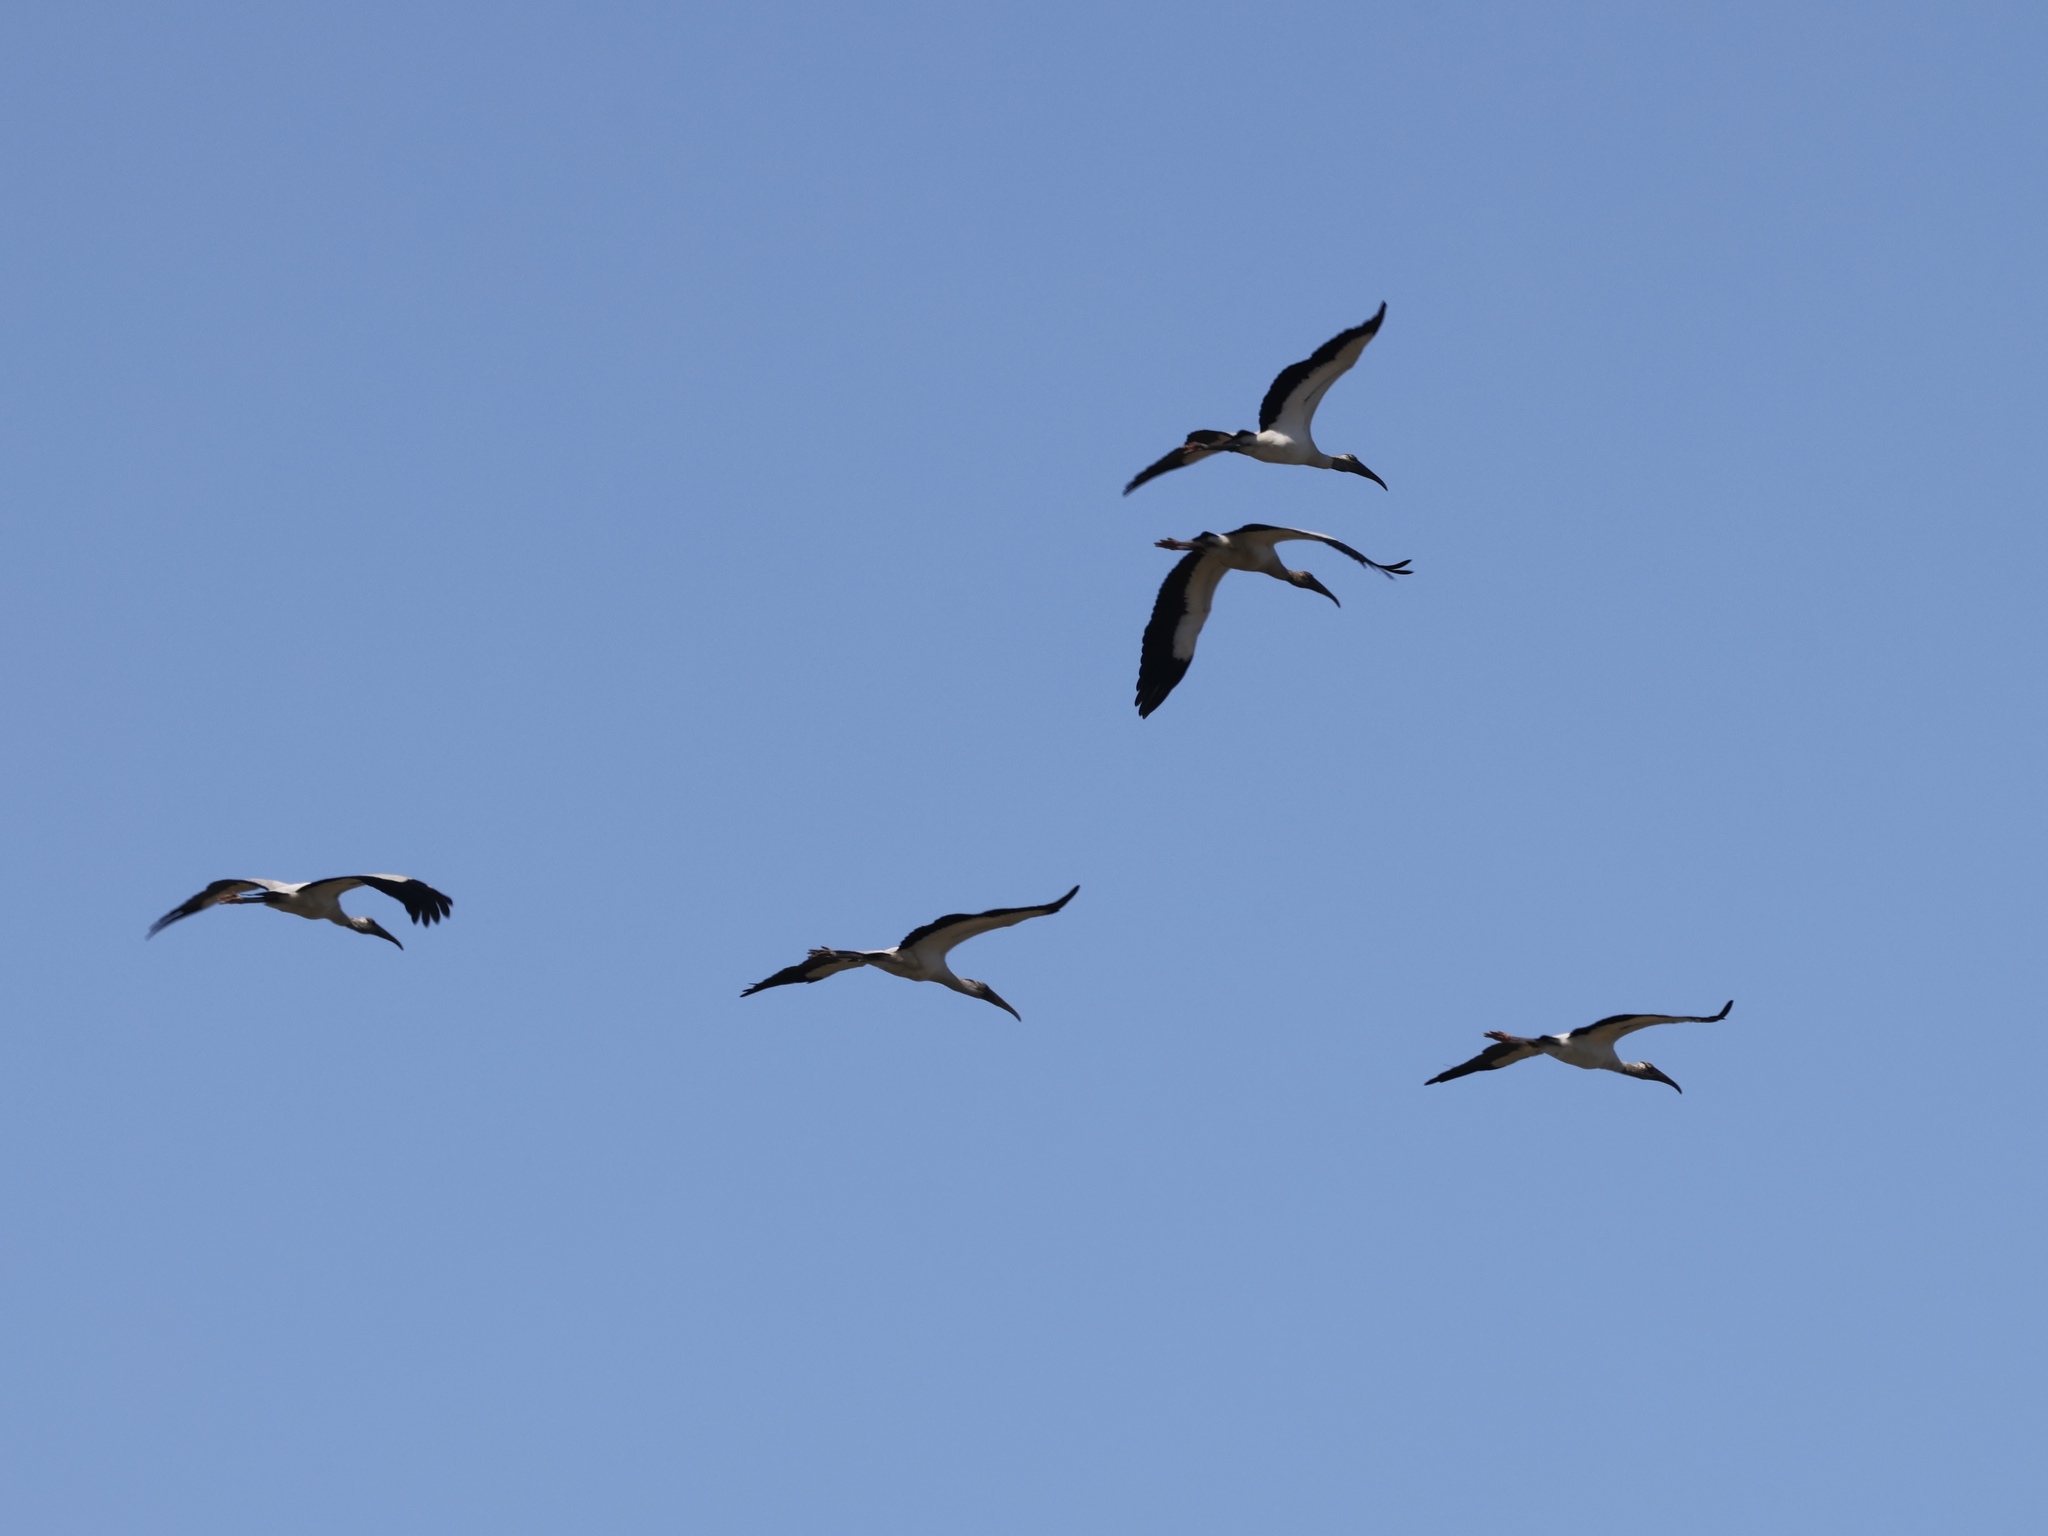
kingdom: Animalia
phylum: Chordata
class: Aves
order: Ciconiiformes
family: Ciconiidae
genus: Mycteria
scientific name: Mycteria americana
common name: Wood stork
